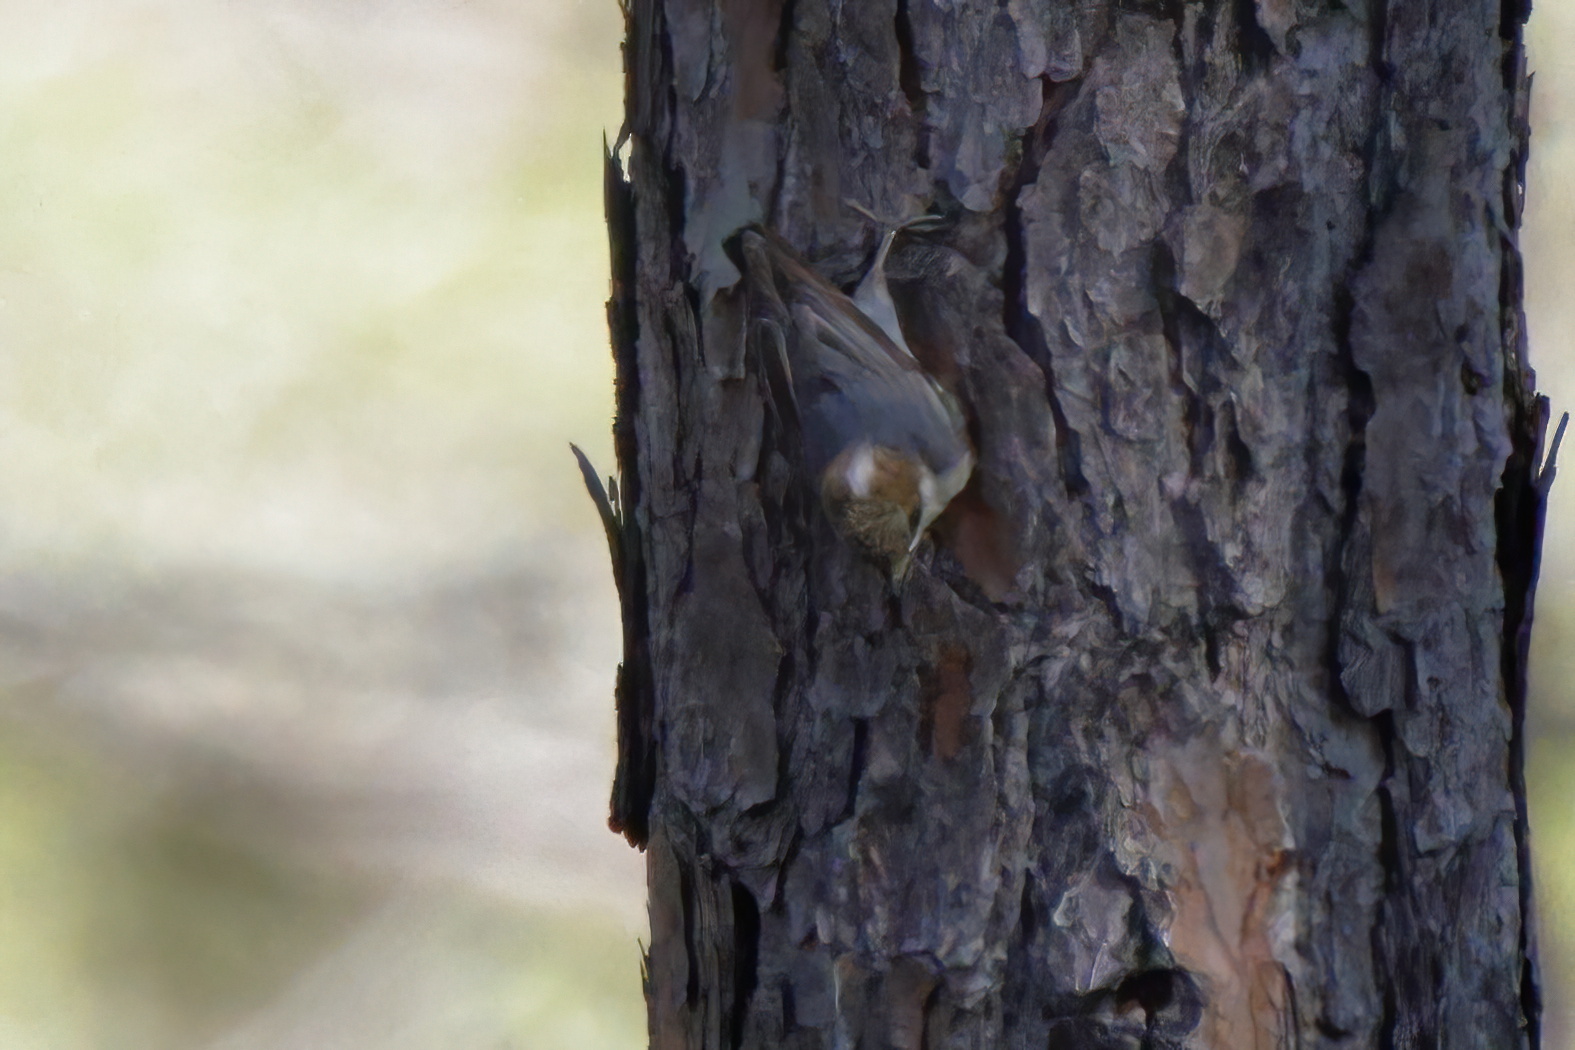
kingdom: Animalia
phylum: Chordata
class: Aves
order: Passeriformes
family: Sittidae
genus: Sitta
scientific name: Sitta pusilla
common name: Brown-headed nuthatch
